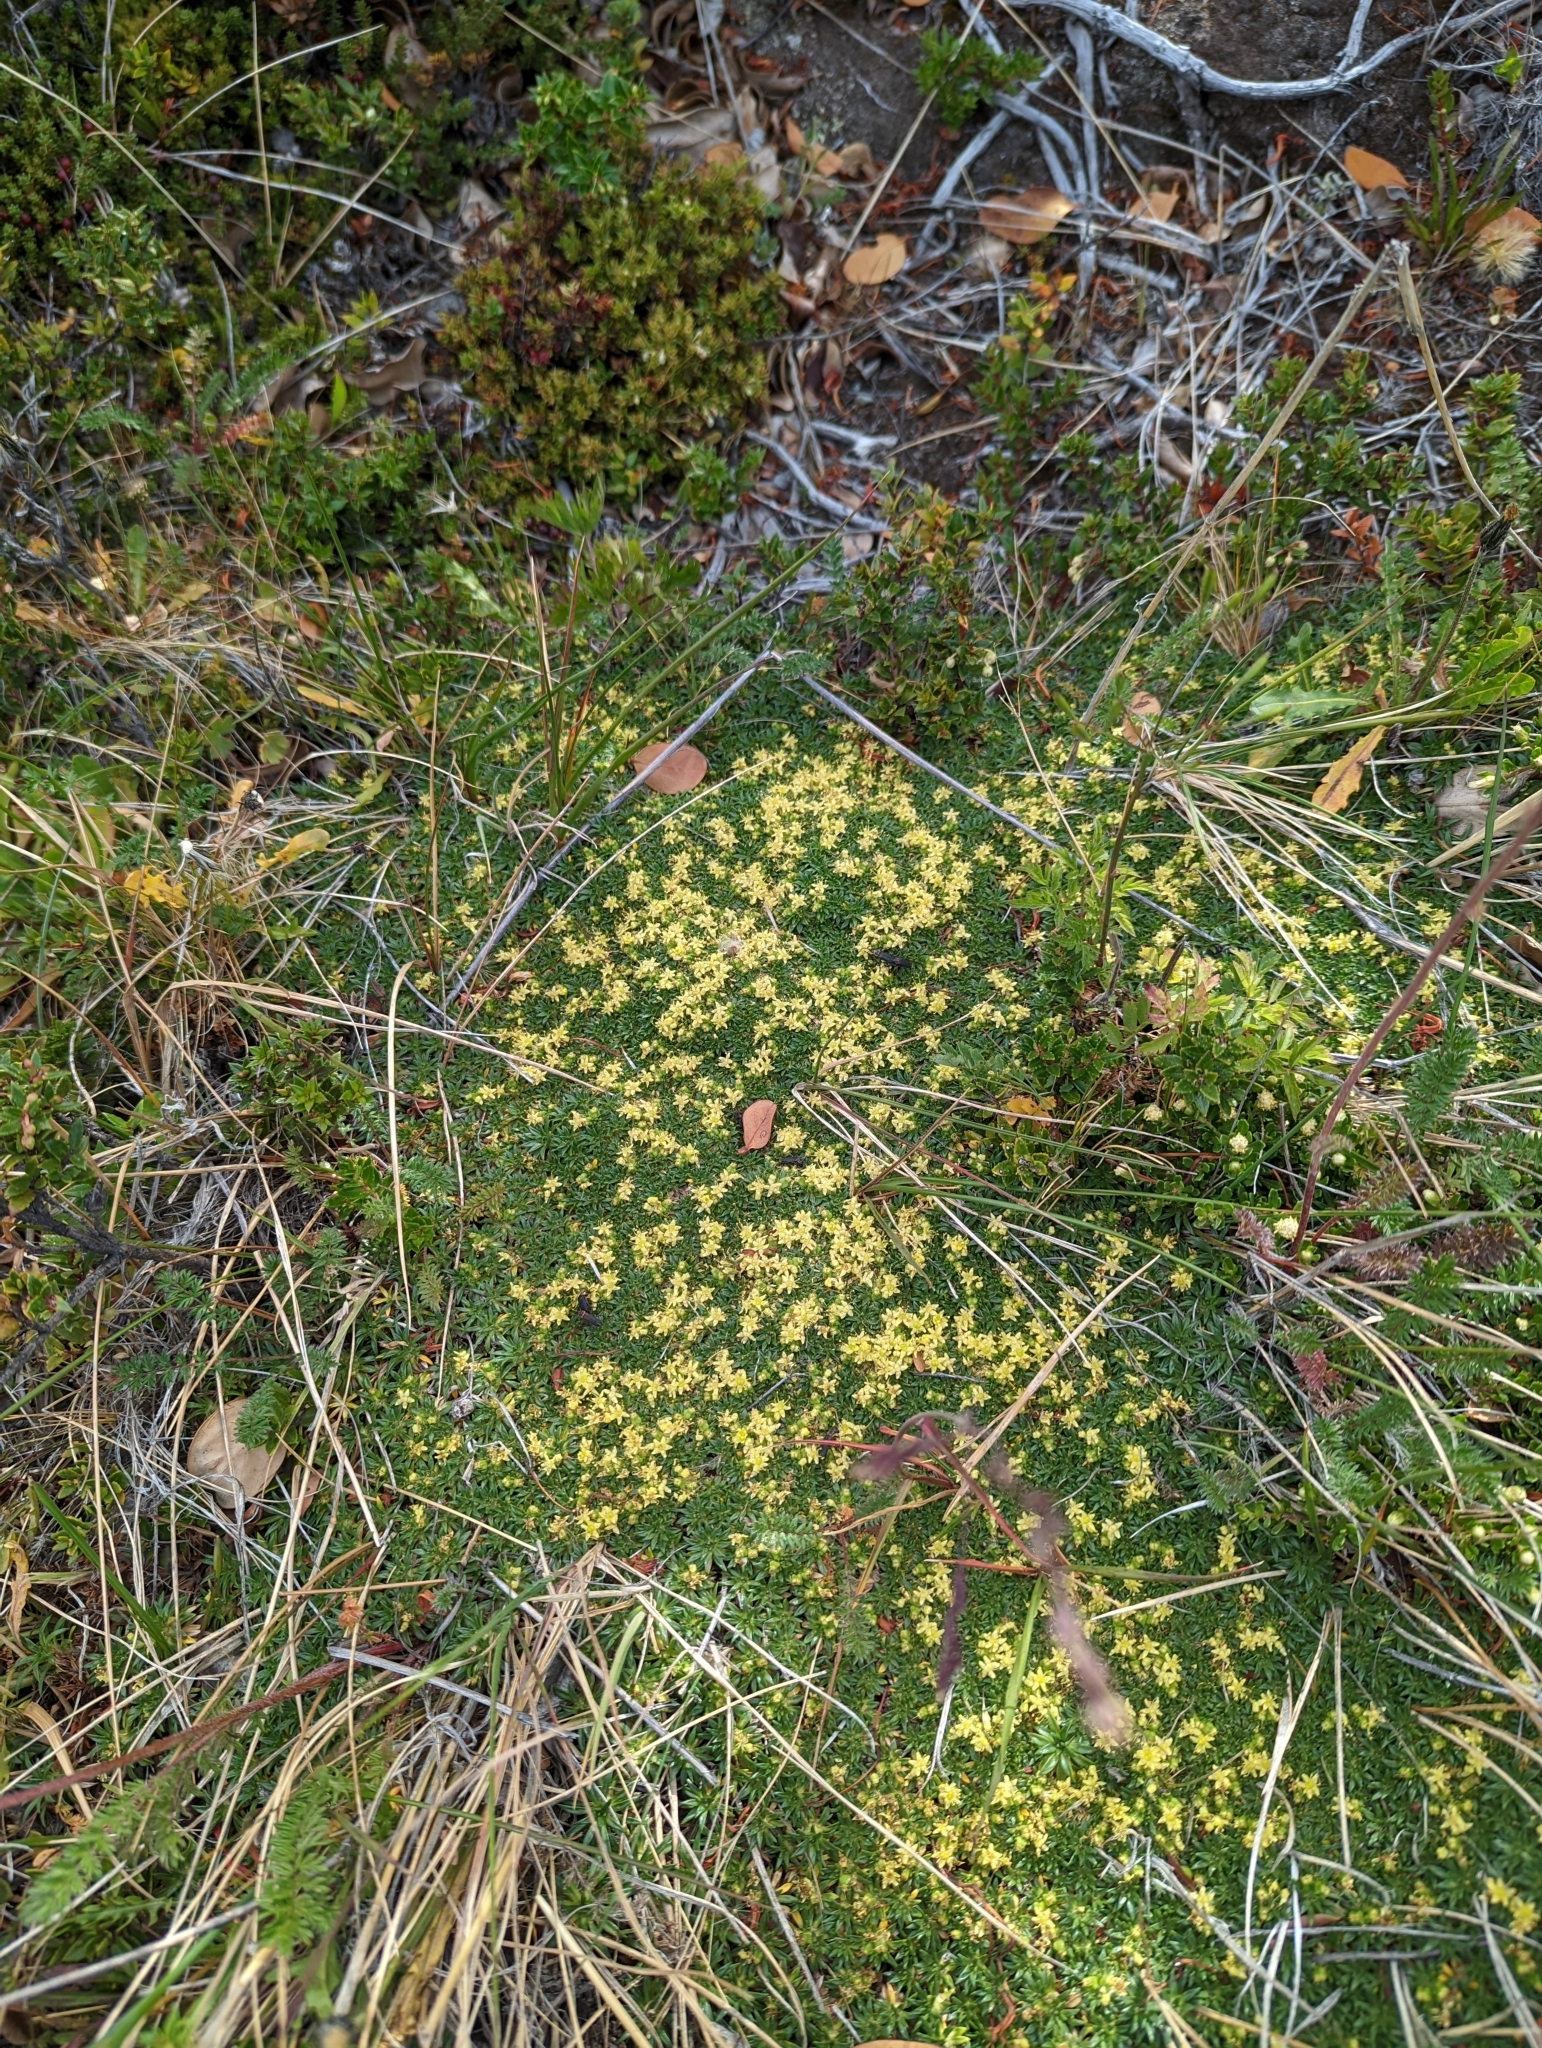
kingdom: Plantae
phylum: Tracheophyta
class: Magnoliopsida
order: Apiales
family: Apiaceae
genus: Azorella
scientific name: Azorella monantha
